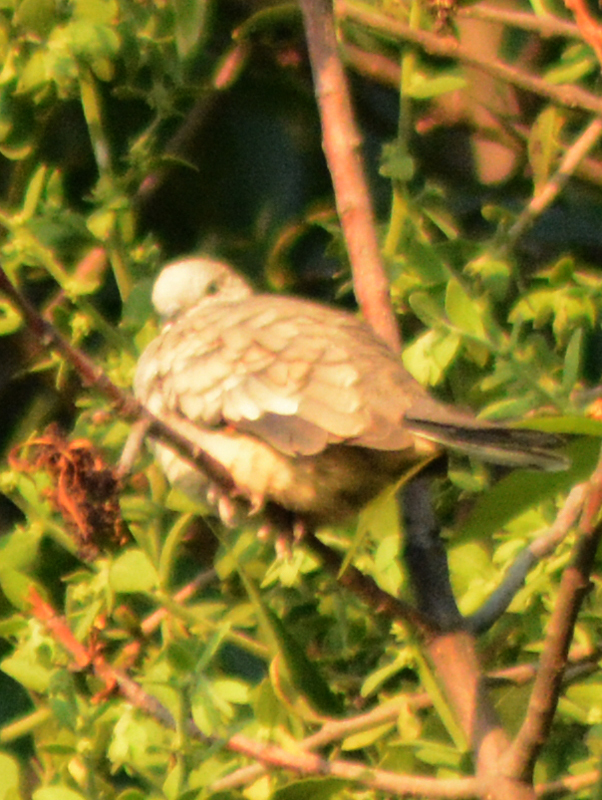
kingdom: Animalia
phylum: Chordata
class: Aves
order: Columbiformes
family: Columbidae
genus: Columbina
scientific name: Columbina inca
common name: Inca dove
